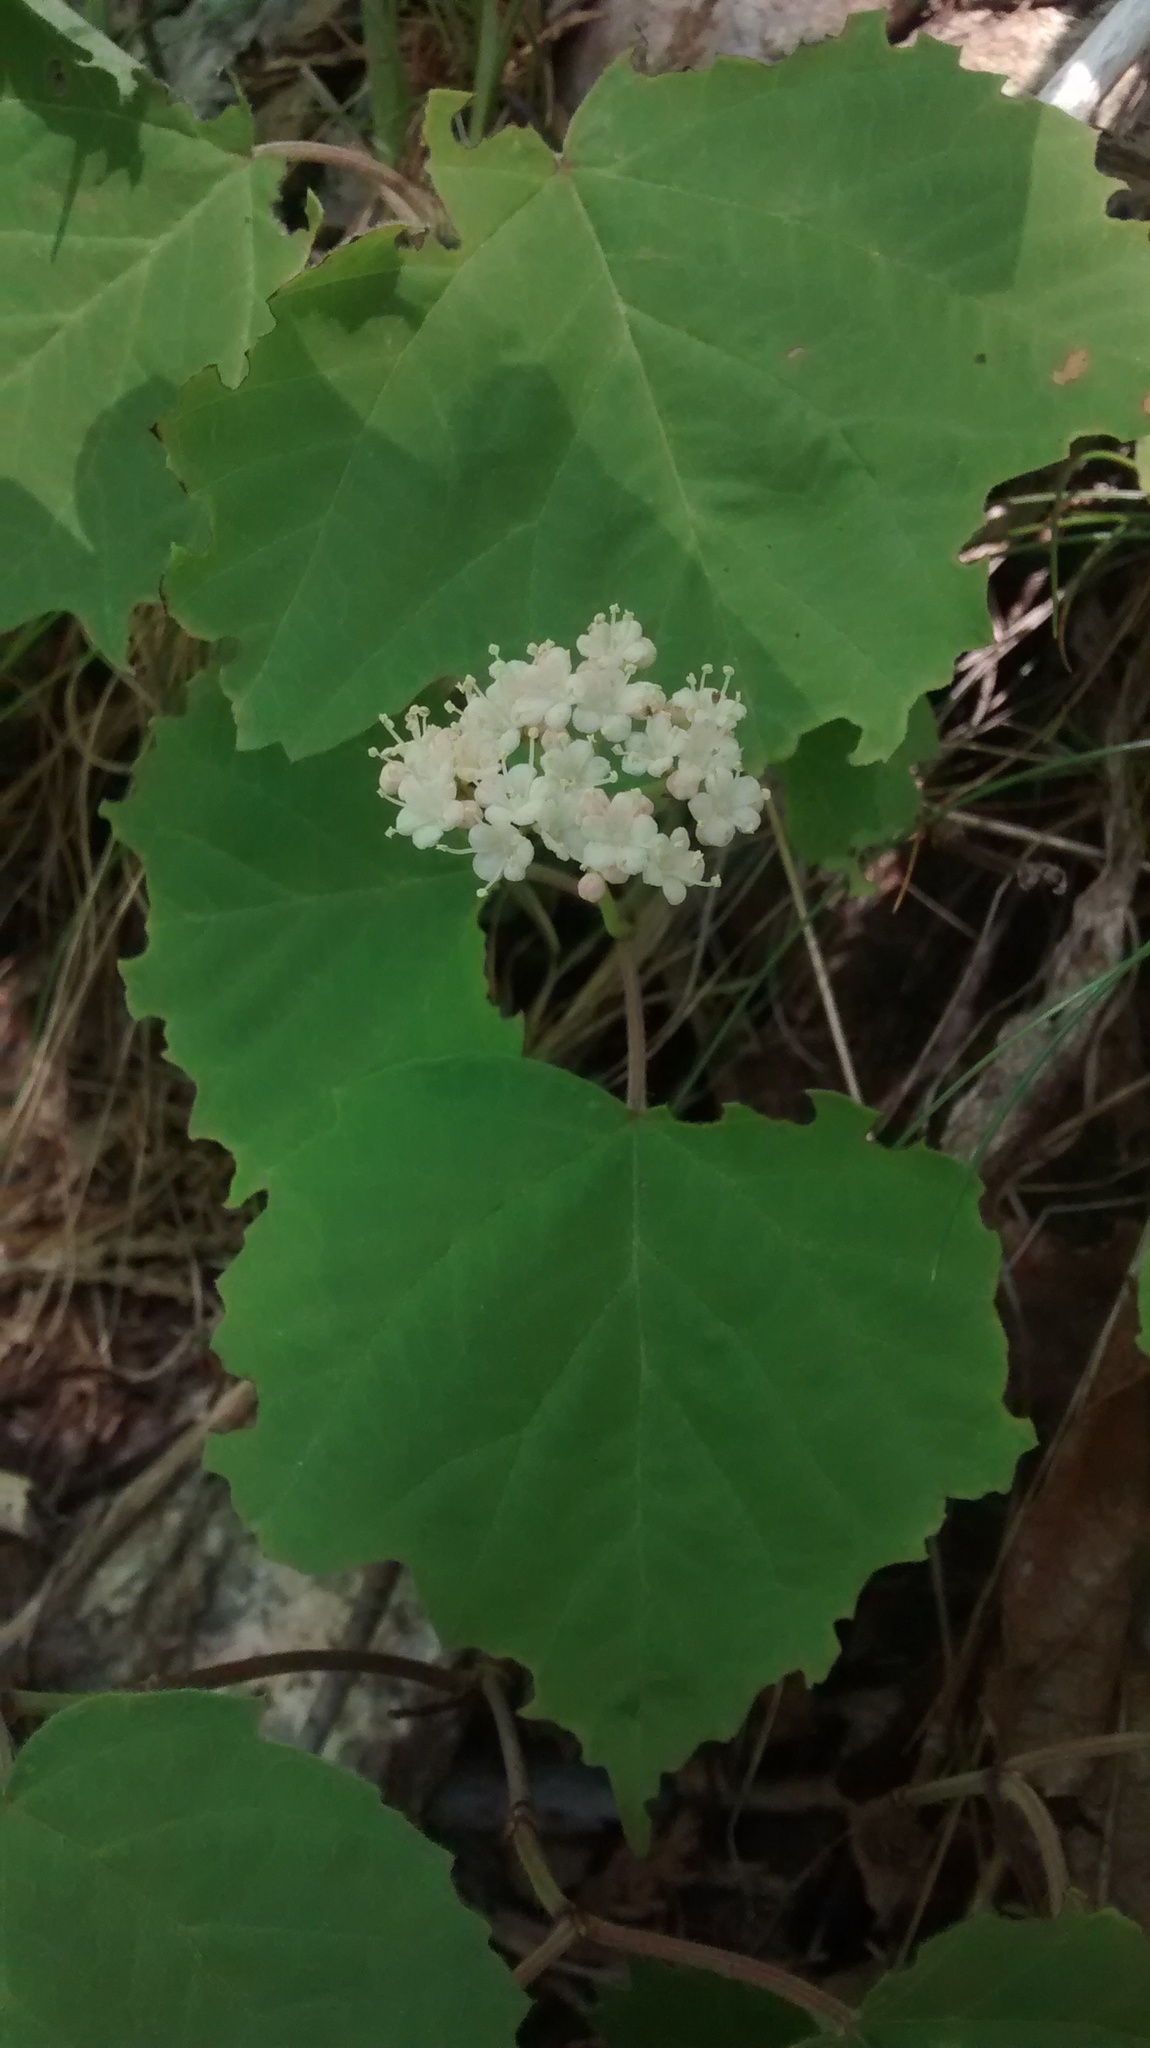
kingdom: Plantae
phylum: Tracheophyta
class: Magnoliopsida
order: Dipsacales
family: Viburnaceae
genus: Viburnum
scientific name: Viburnum acerifolium
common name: Dockmackie
